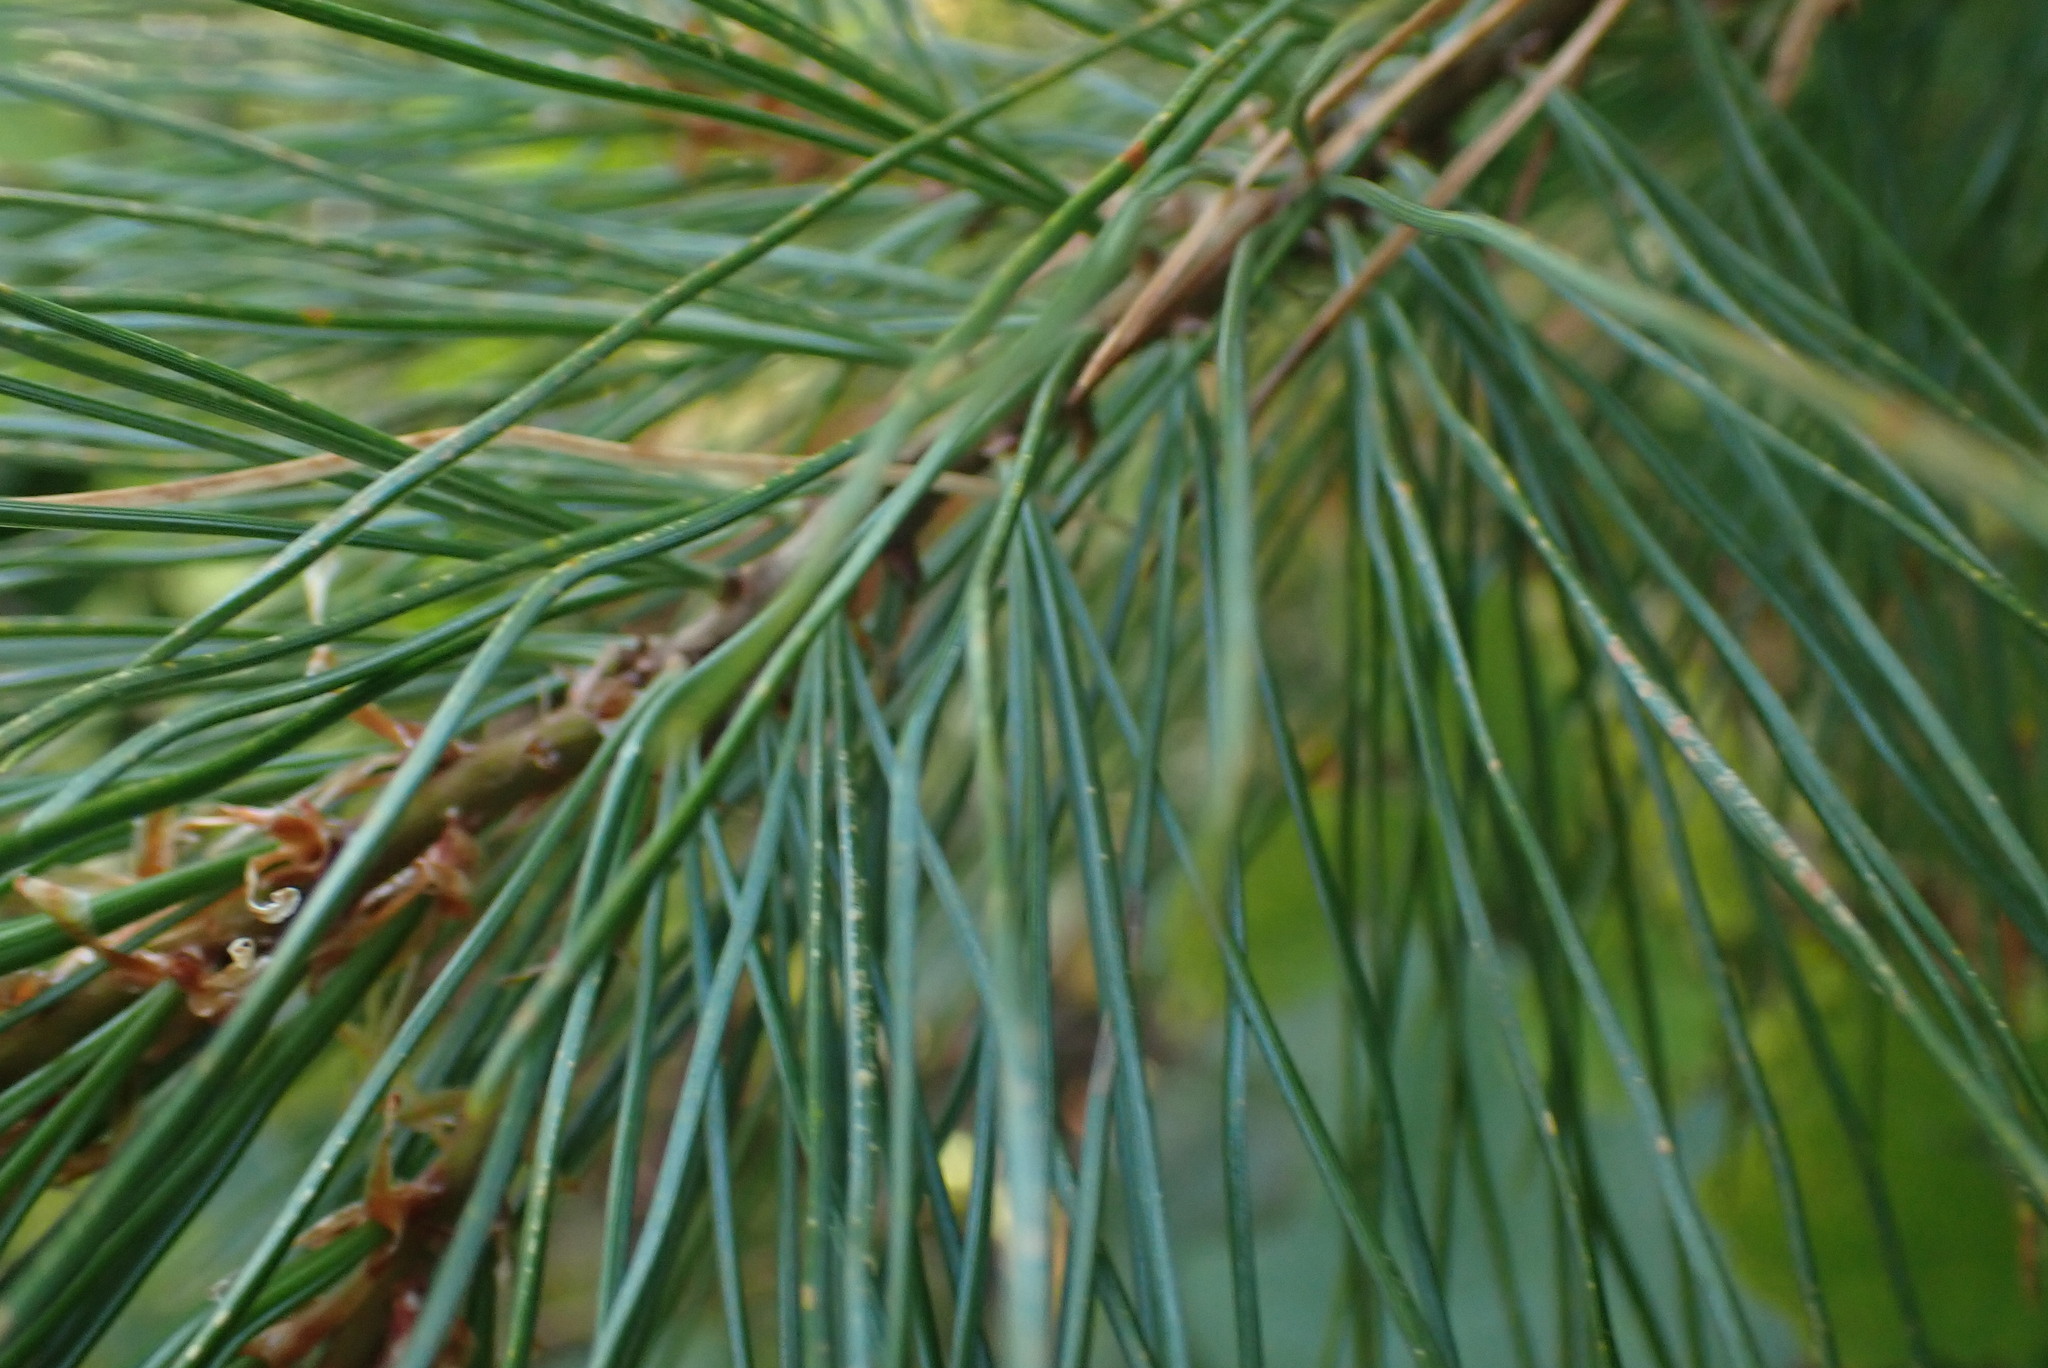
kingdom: Plantae
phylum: Tracheophyta
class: Pinopsida
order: Pinales
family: Pinaceae
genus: Pinus
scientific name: Pinus monticola
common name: Western white pine
